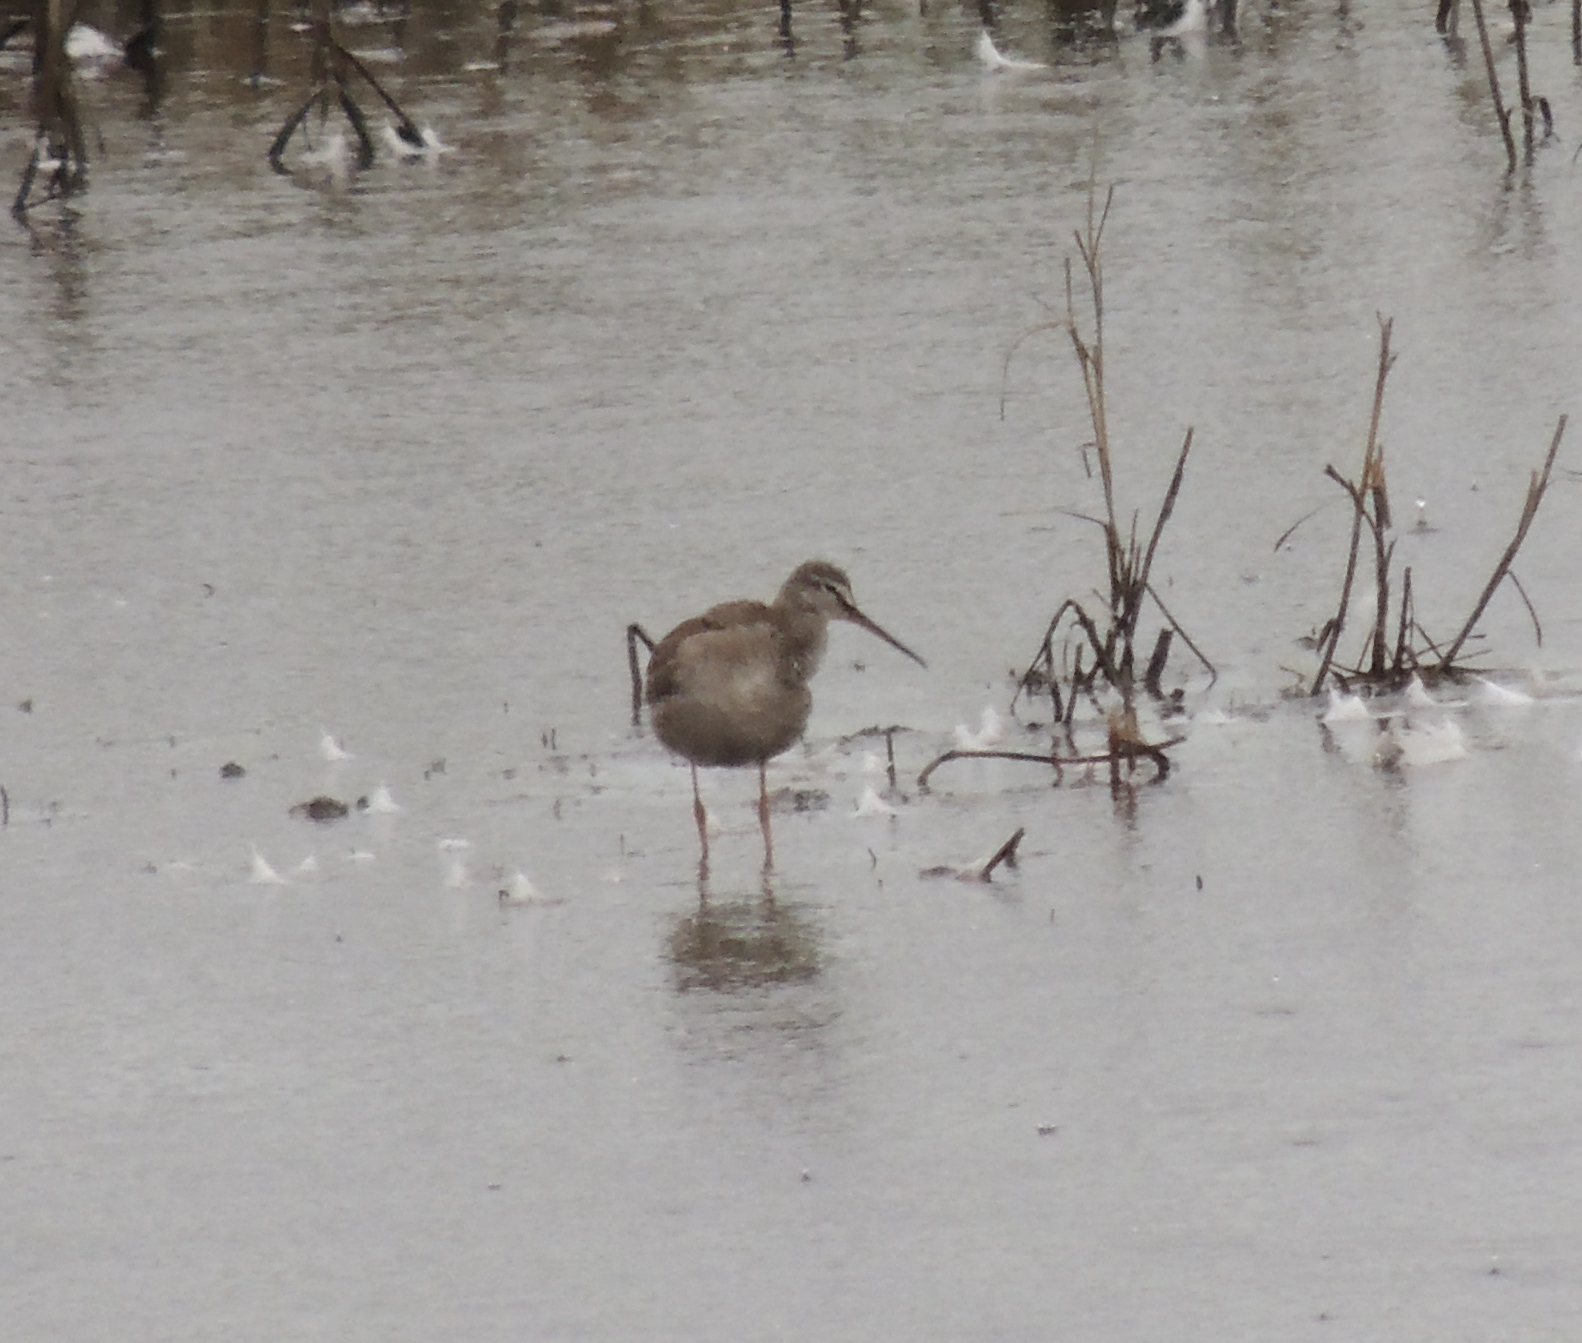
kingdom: Animalia
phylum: Chordata
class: Aves
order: Charadriiformes
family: Scolopacidae
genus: Tringa
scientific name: Tringa erythropus
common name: Spotted redshank
